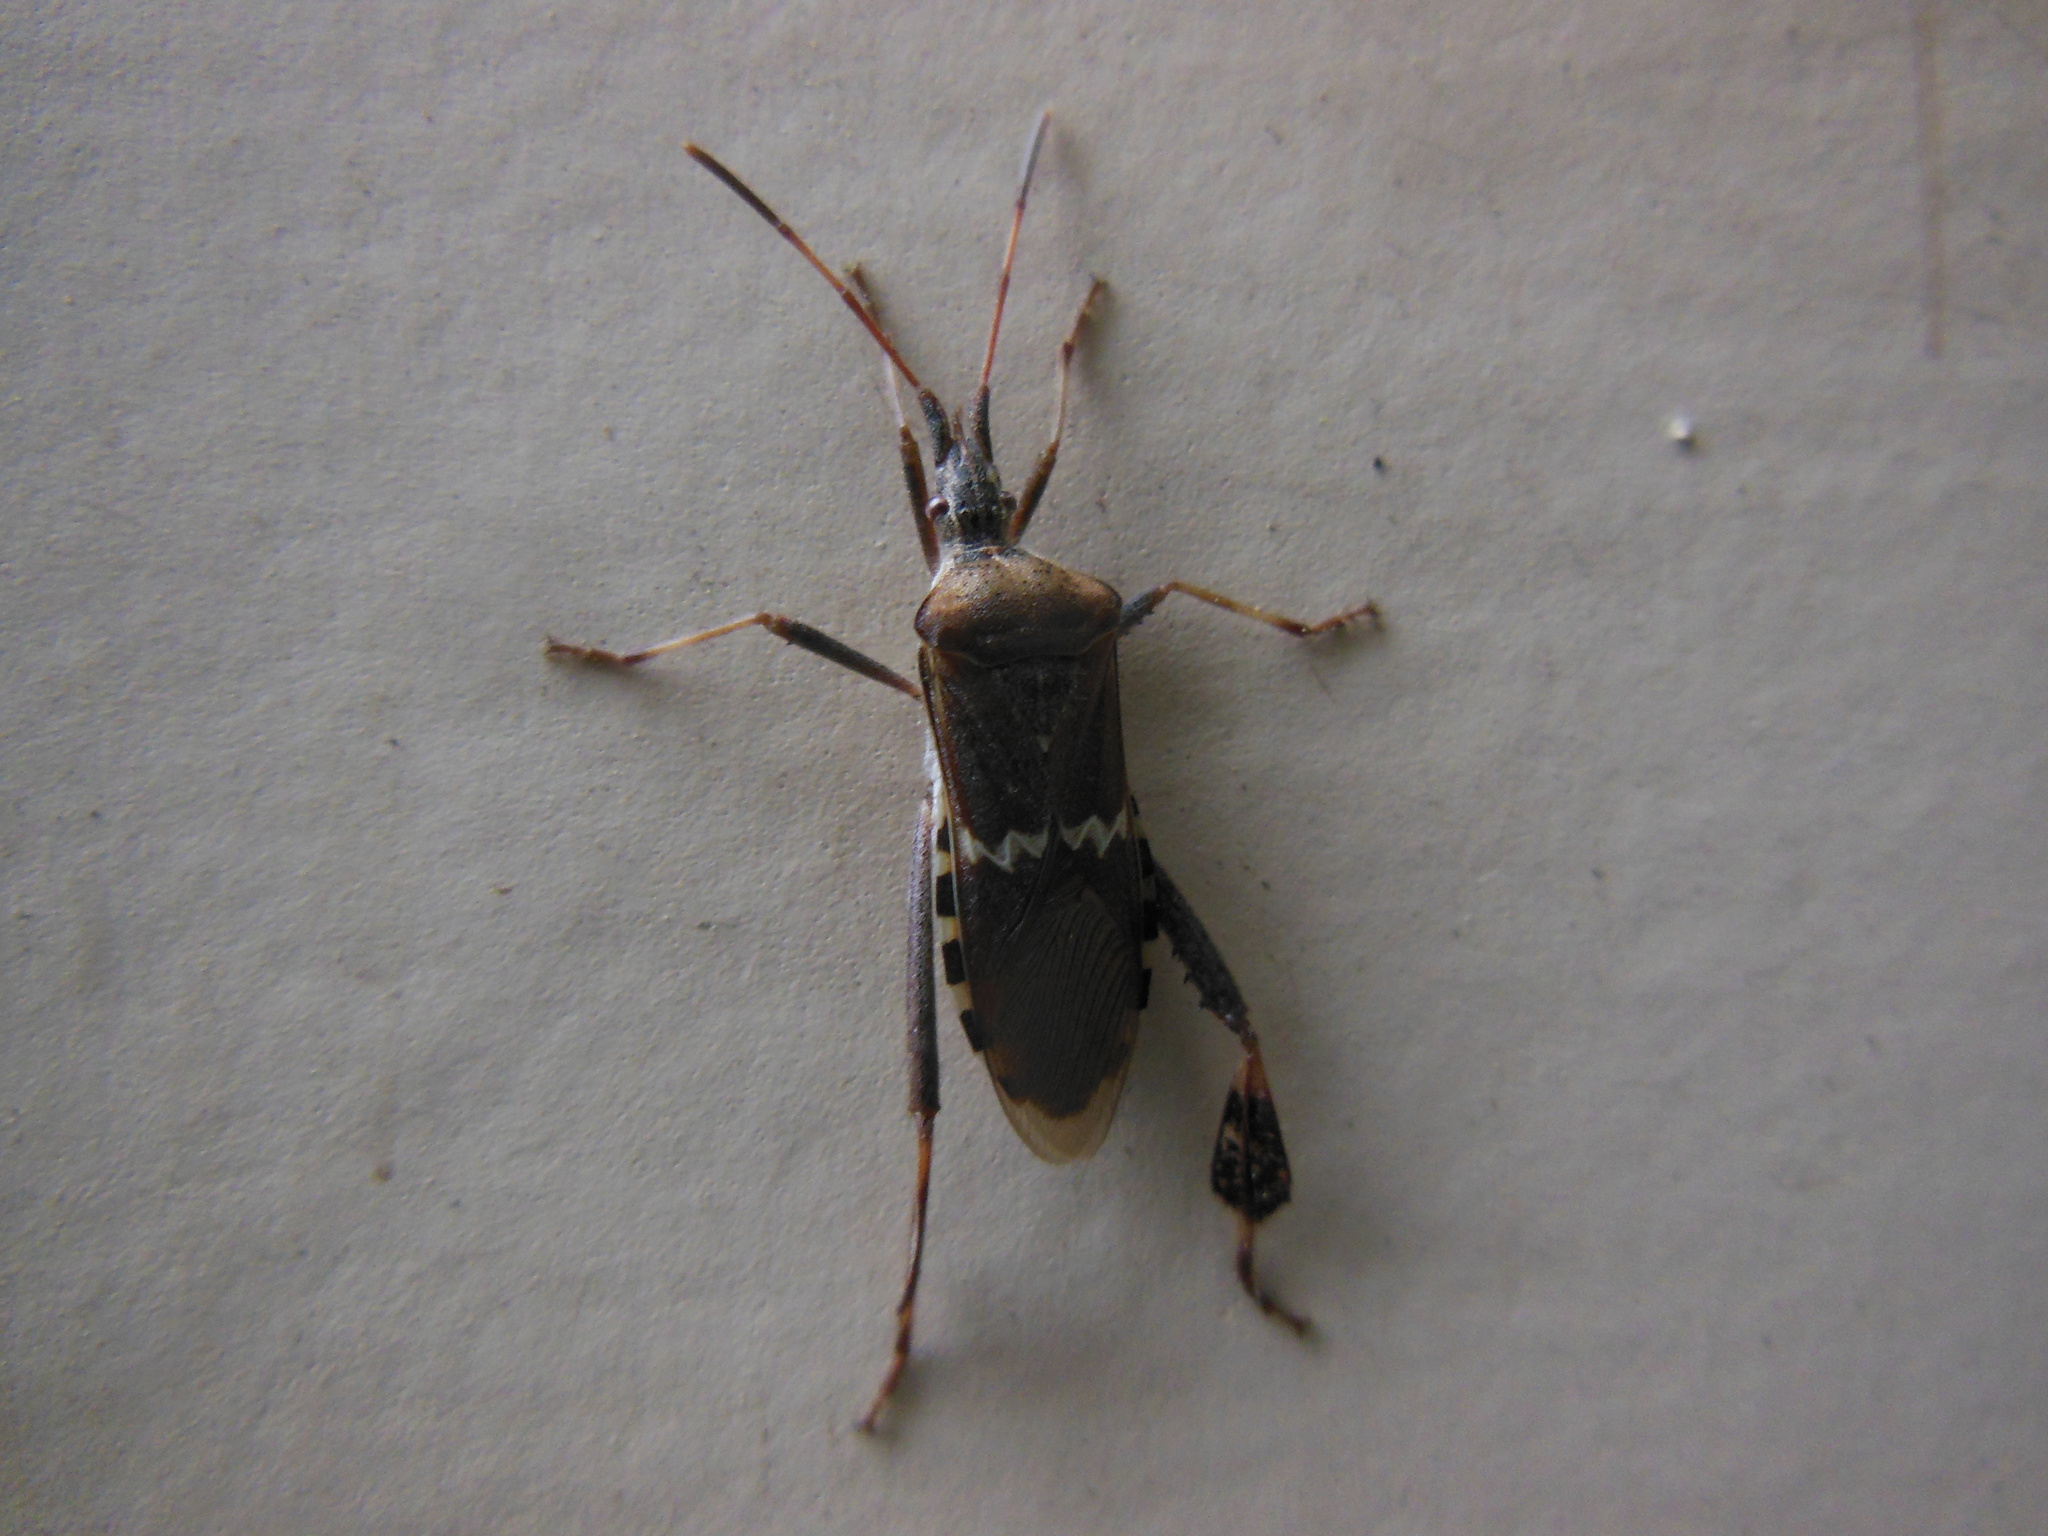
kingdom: Animalia
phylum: Arthropoda
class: Insecta
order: Hemiptera
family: Coreidae
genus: Leptoglossus
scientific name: Leptoglossus clypealis
